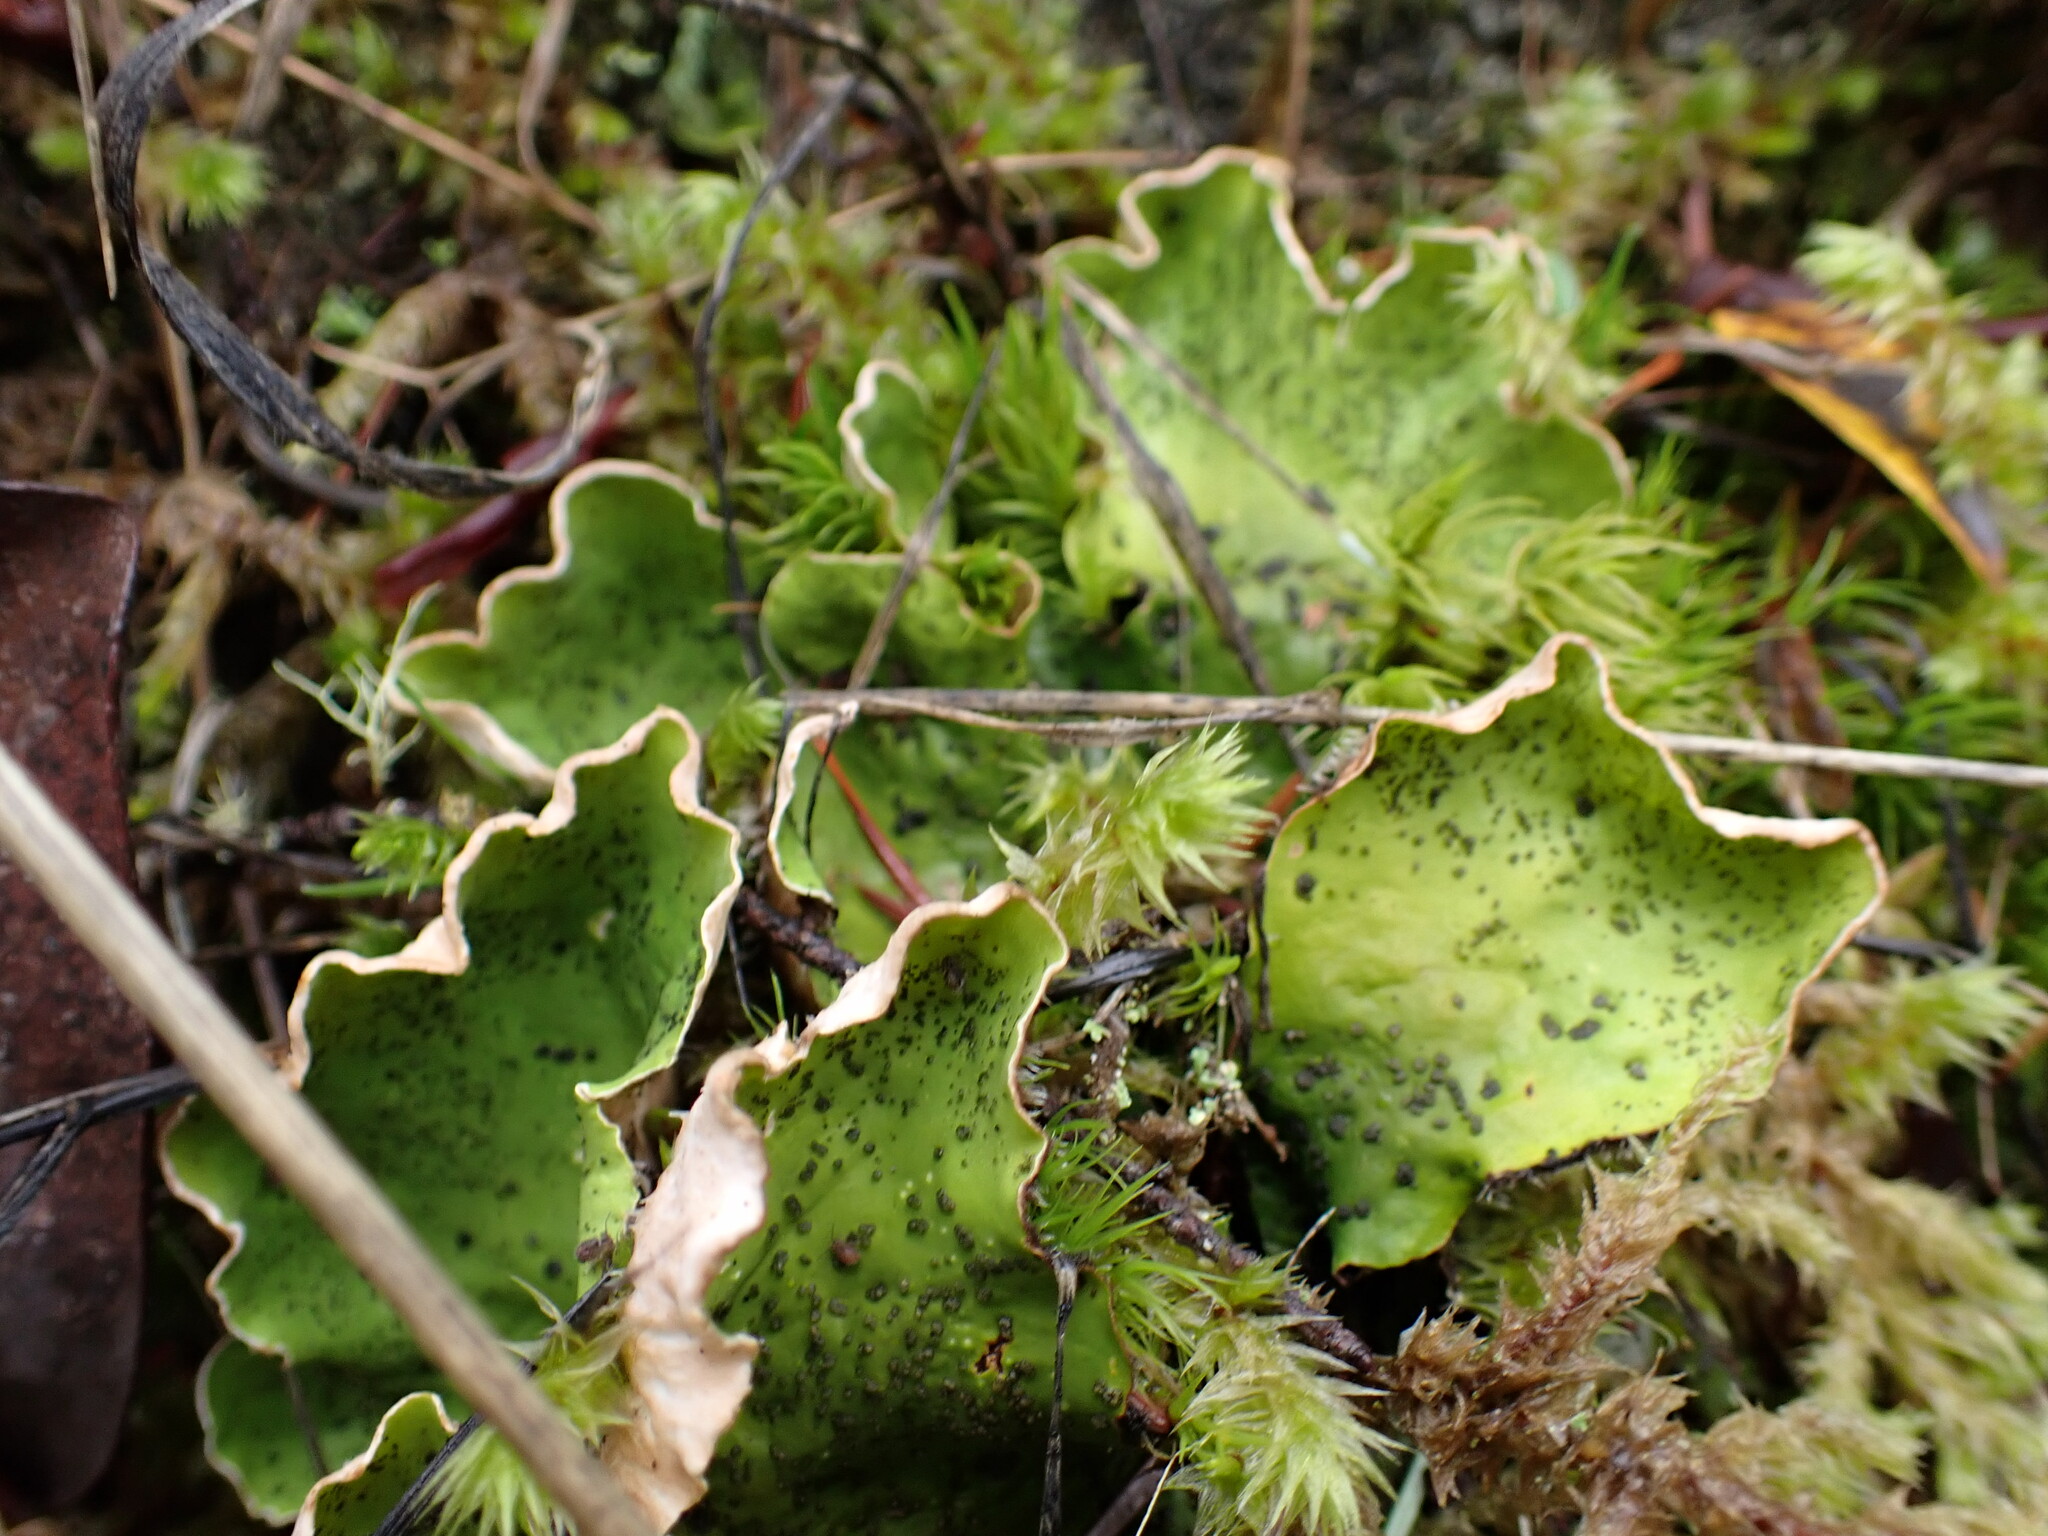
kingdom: Fungi
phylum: Ascomycota
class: Lecanoromycetes
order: Peltigerales
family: Peltigeraceae
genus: Peltigera
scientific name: Peltigera aphthosa
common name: Common freckle pelt lichen
